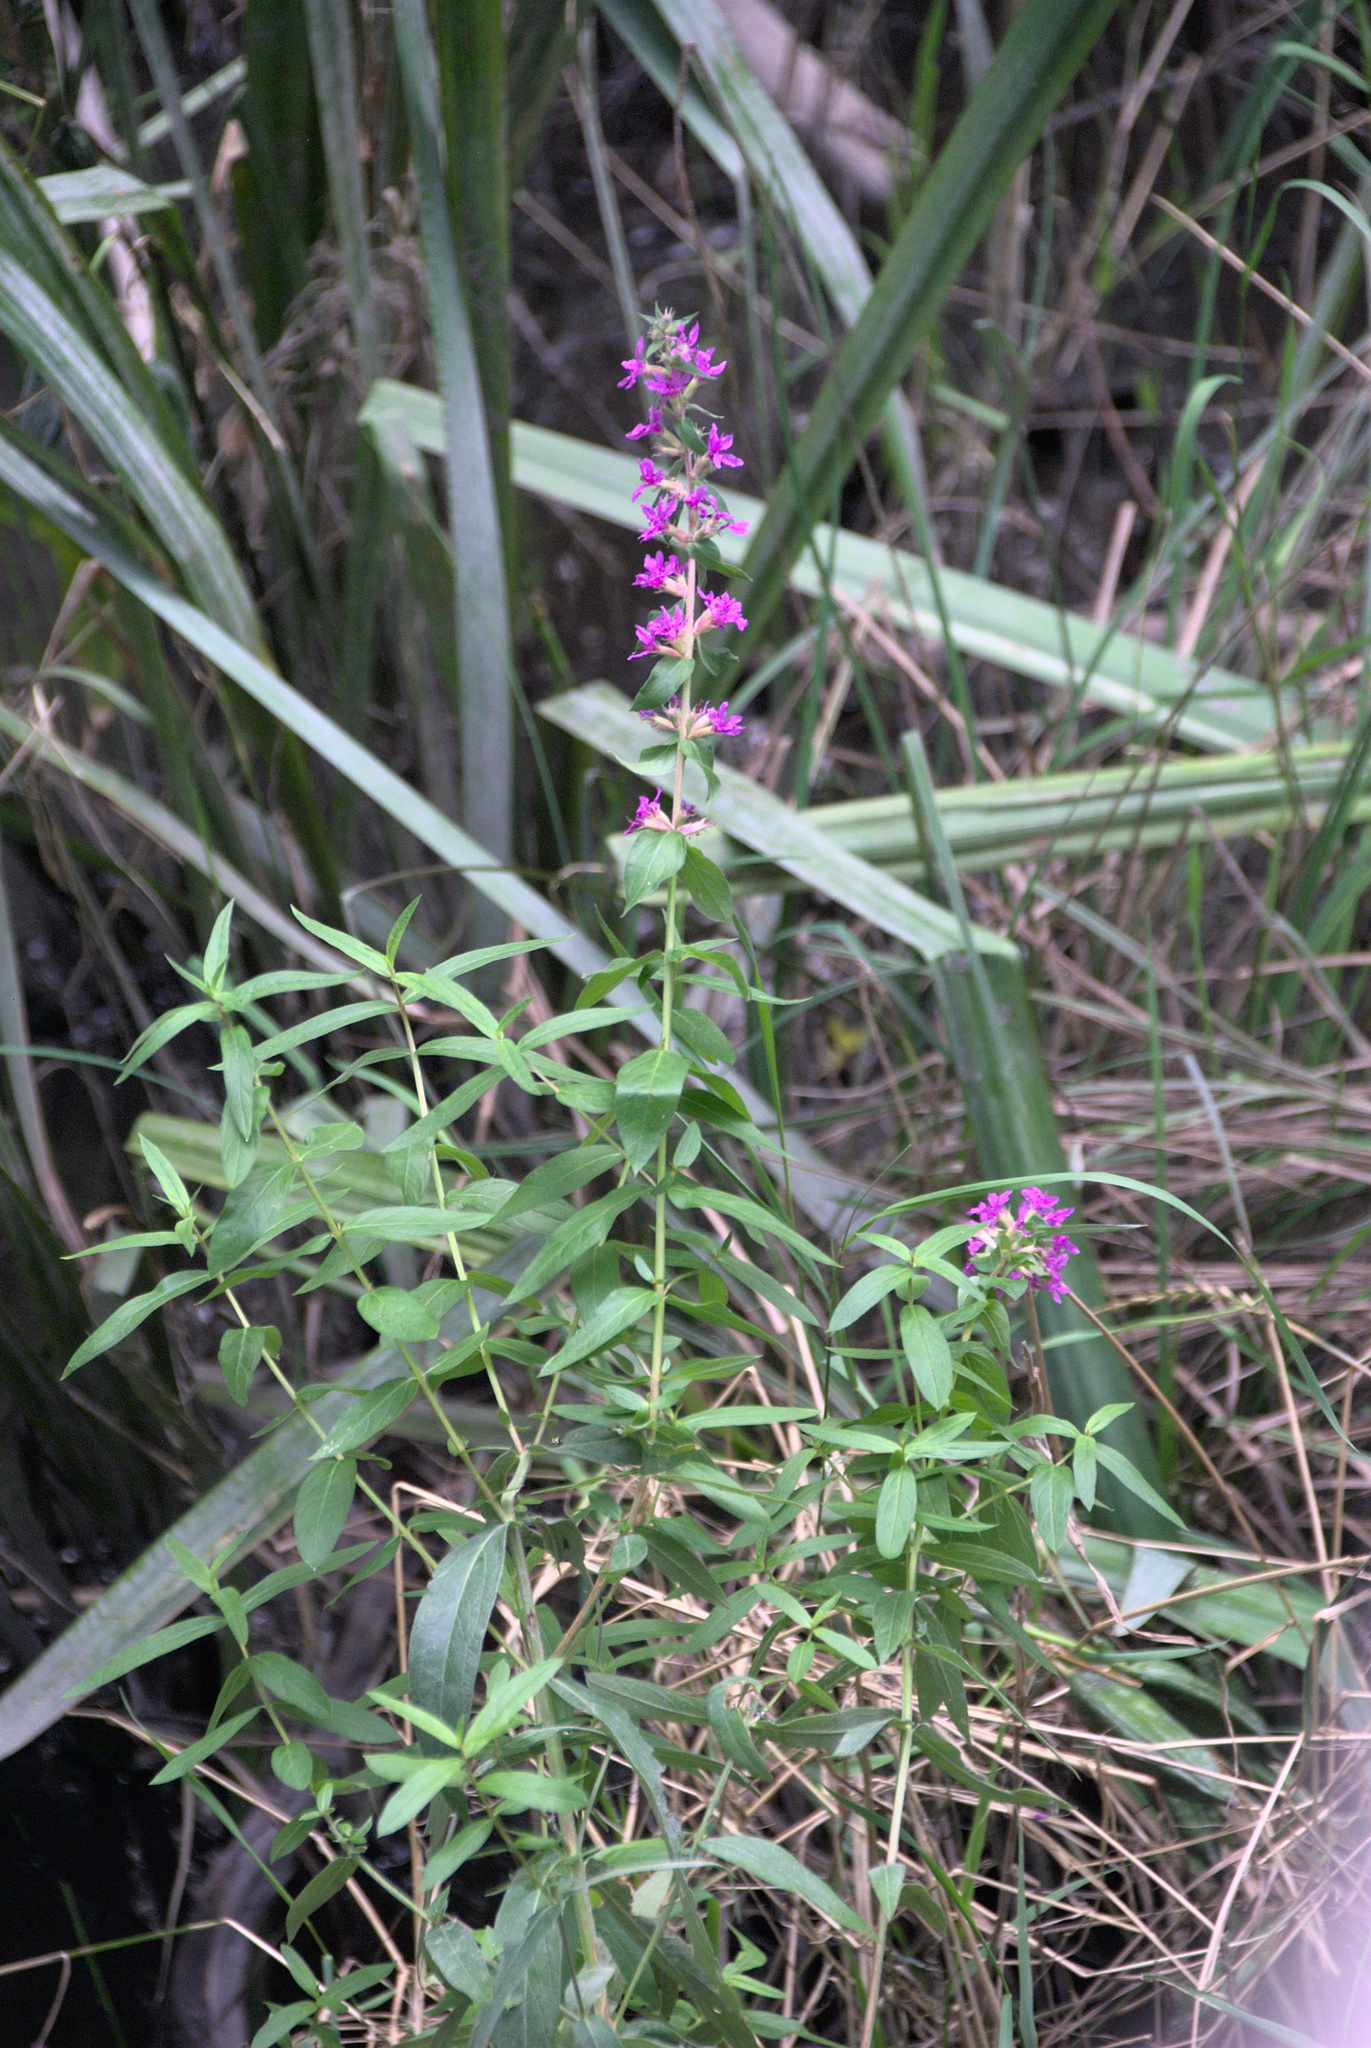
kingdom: Plantae
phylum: Tracheophyta
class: Magnoliopsida
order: Myrtales
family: Lythraceae
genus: Lythrum
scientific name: Lythrum salicaria
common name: Purple loosestrife
